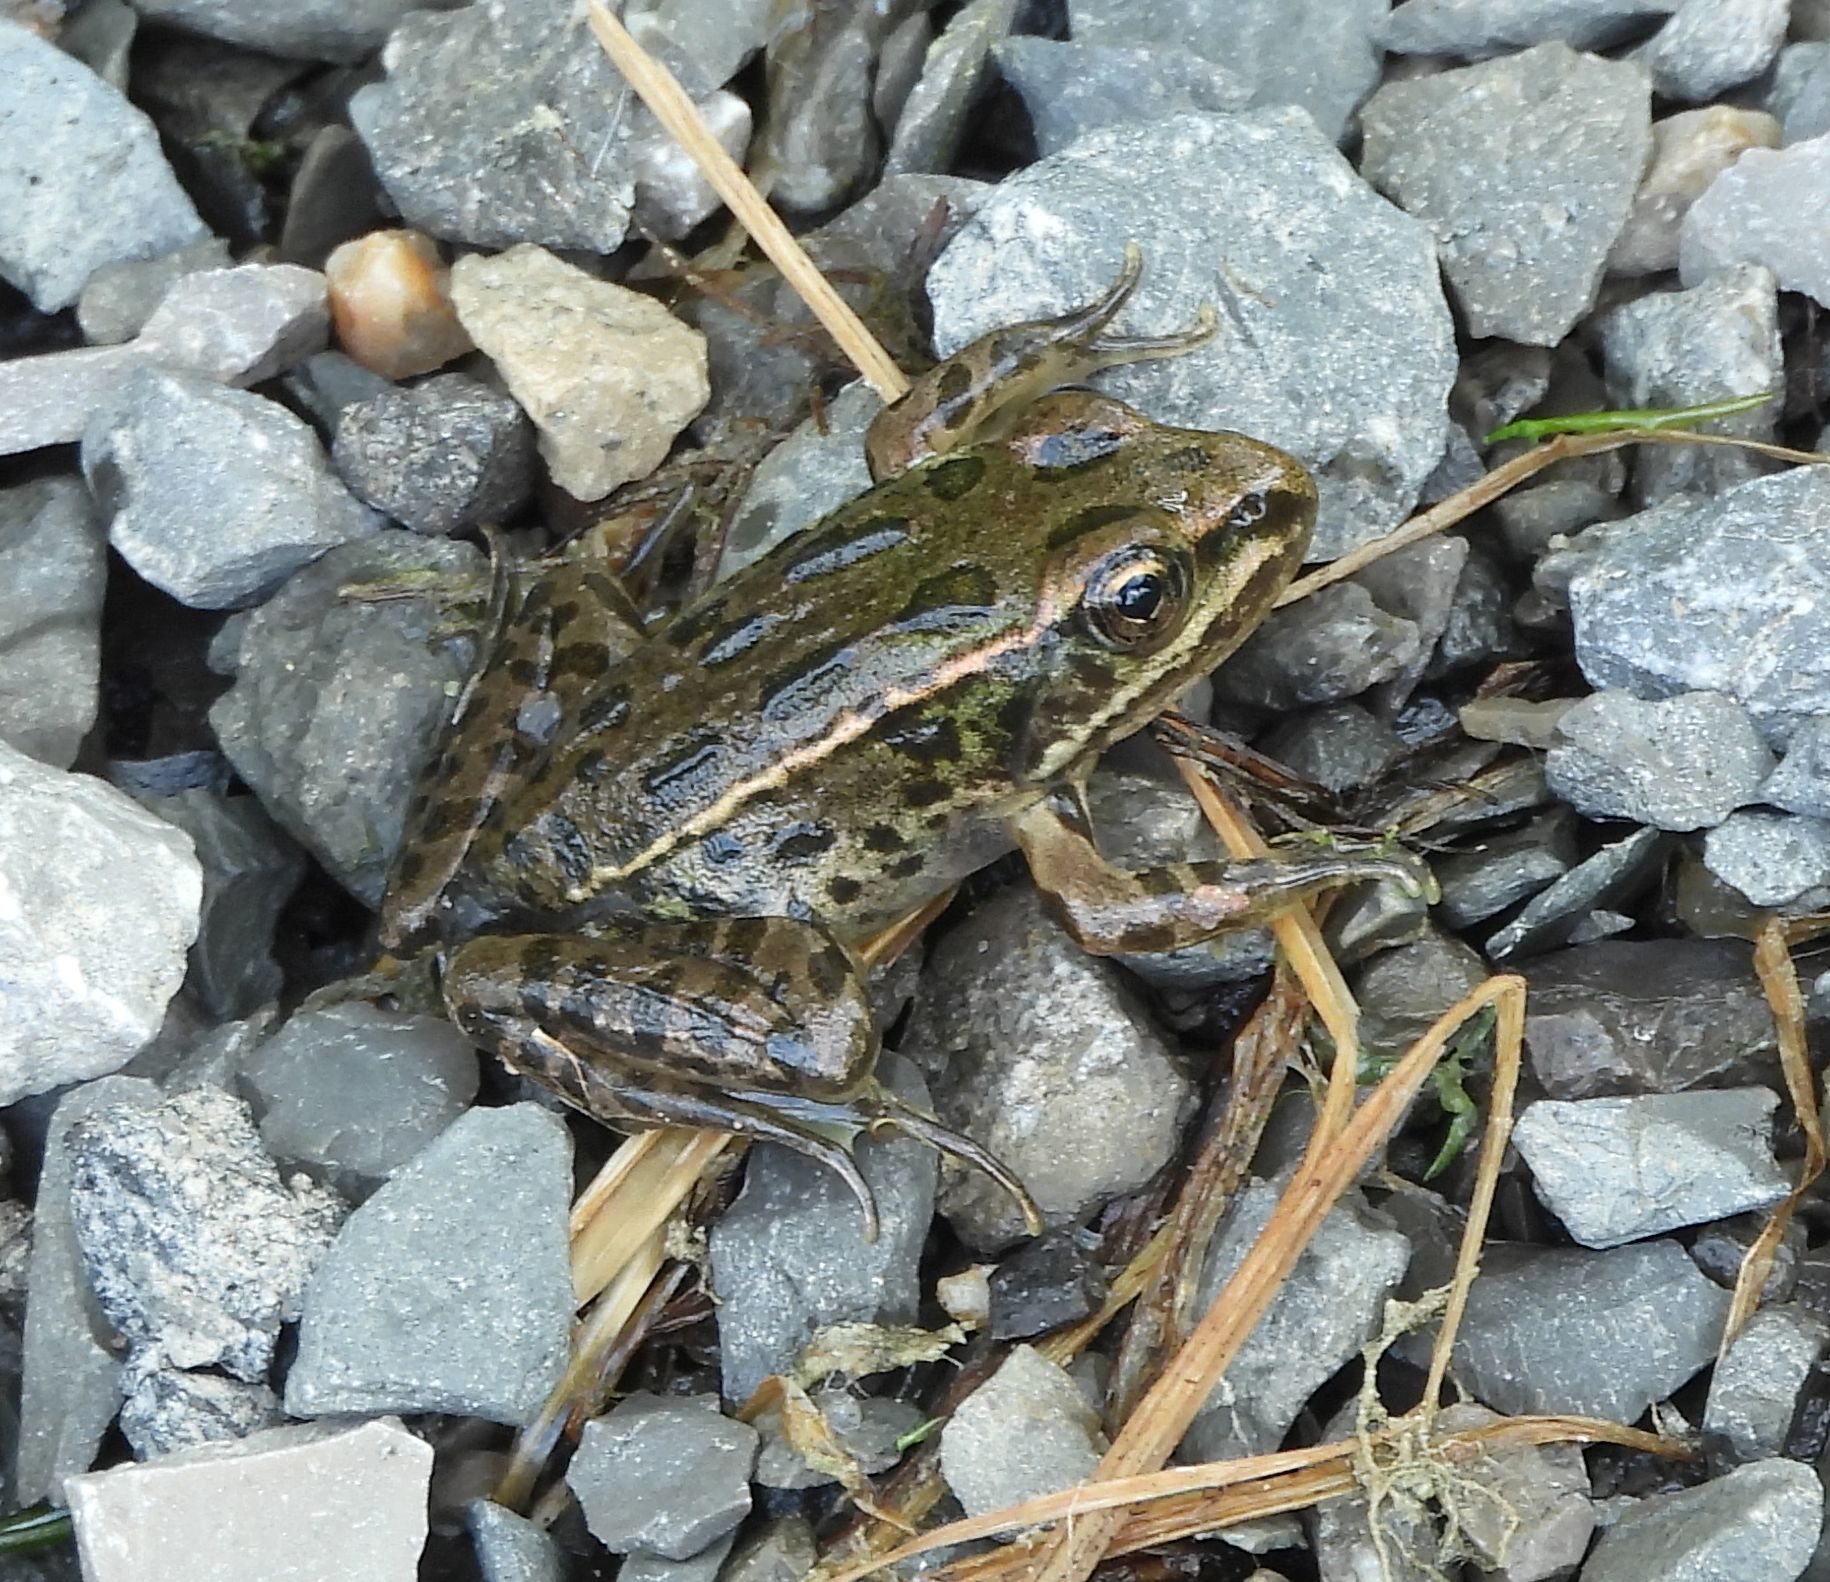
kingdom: Animalia
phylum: Chordata
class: Amphibia
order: Anura
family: Ranidae
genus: Lithobates
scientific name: Lithobates pipiens
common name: Northern leopard frog
